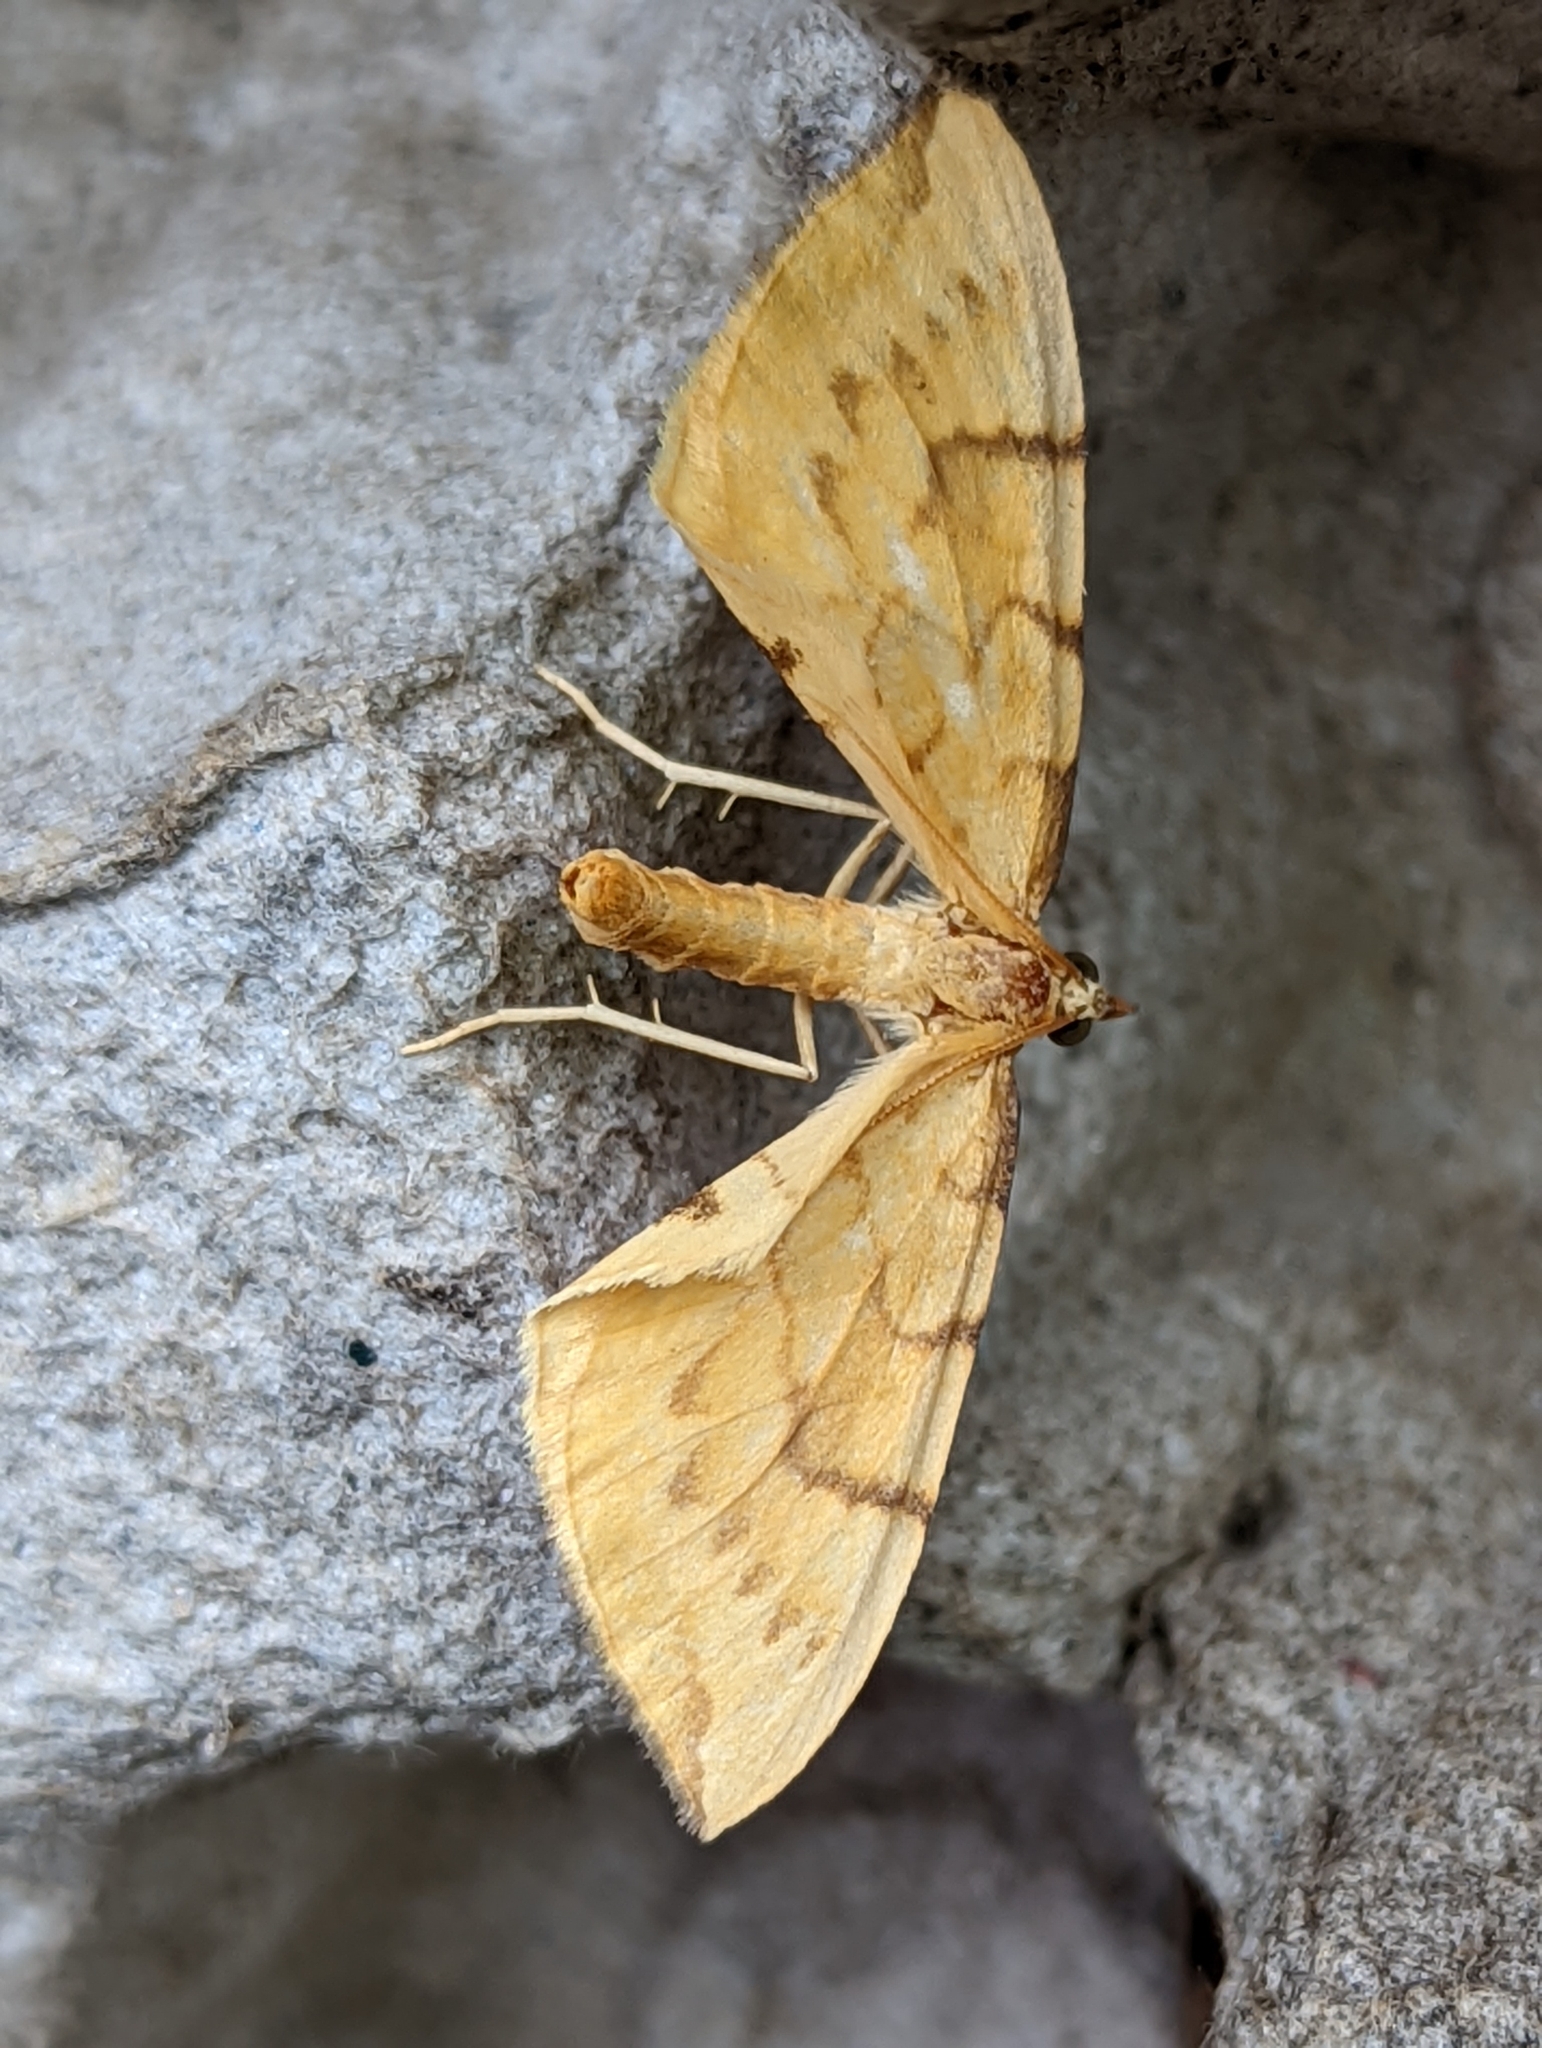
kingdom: Animalia
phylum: Arthropoda
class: Insecta
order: Lepidoptera
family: Geometridae
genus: Eulithis
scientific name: Eulithis pyraliata
